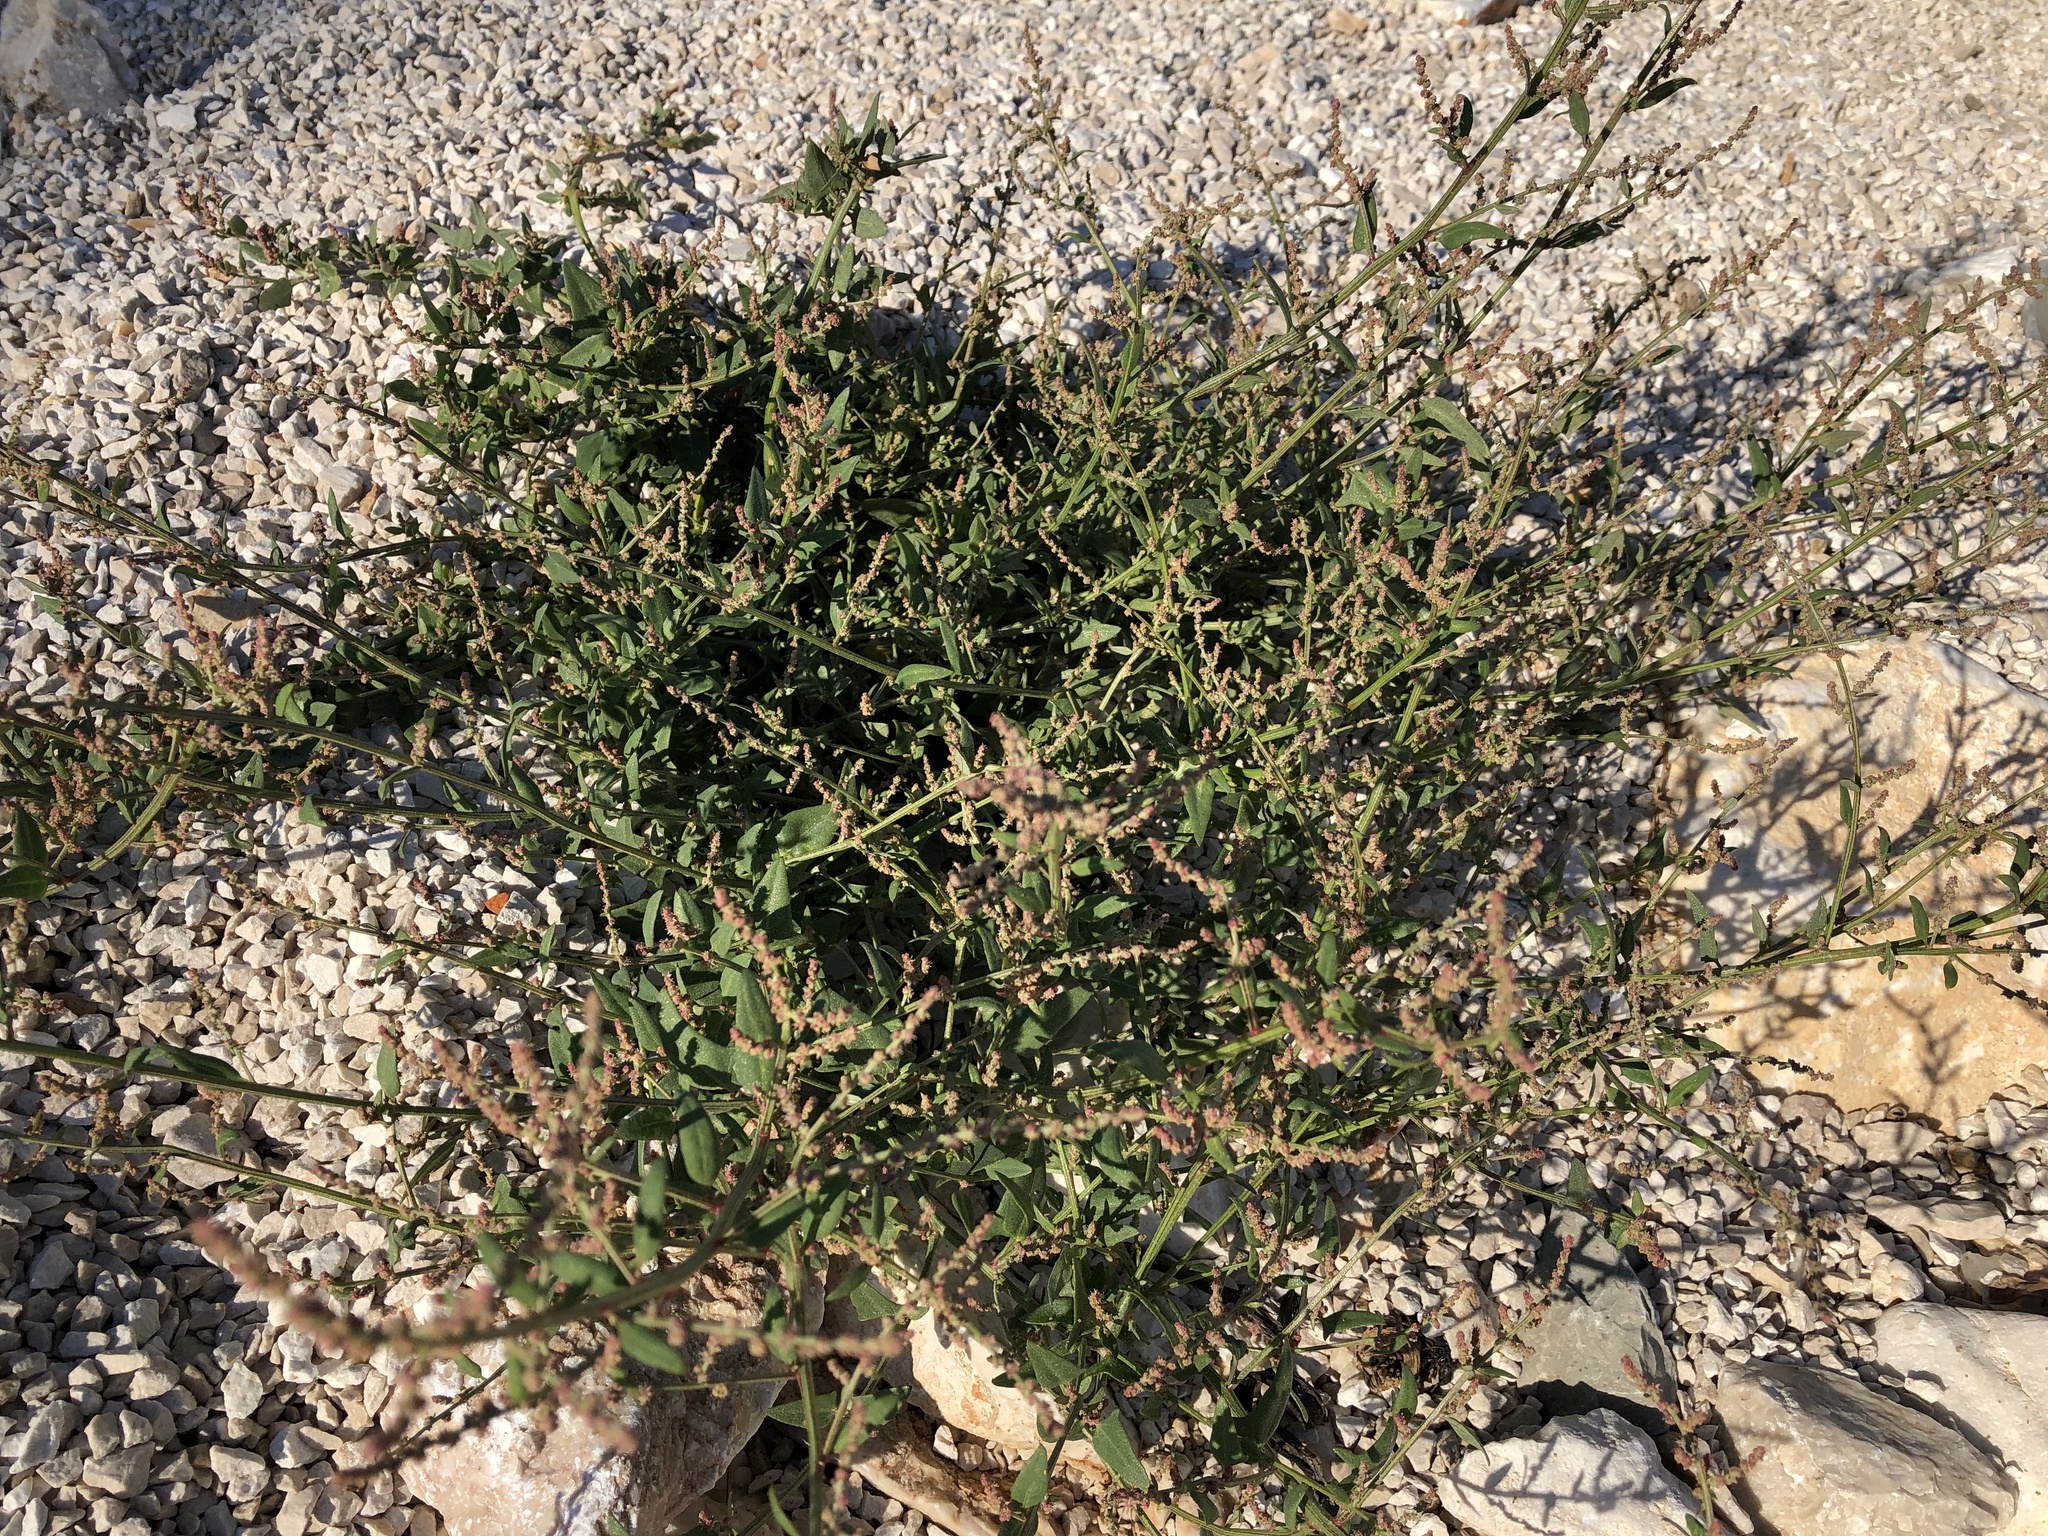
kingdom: Plantae
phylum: Tracheophyta
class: Magnoliopsida
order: Caryophyllales
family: Amaranthaceae
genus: Atriplex
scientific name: Atriplex prostrata
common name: Spear-leaved orache
